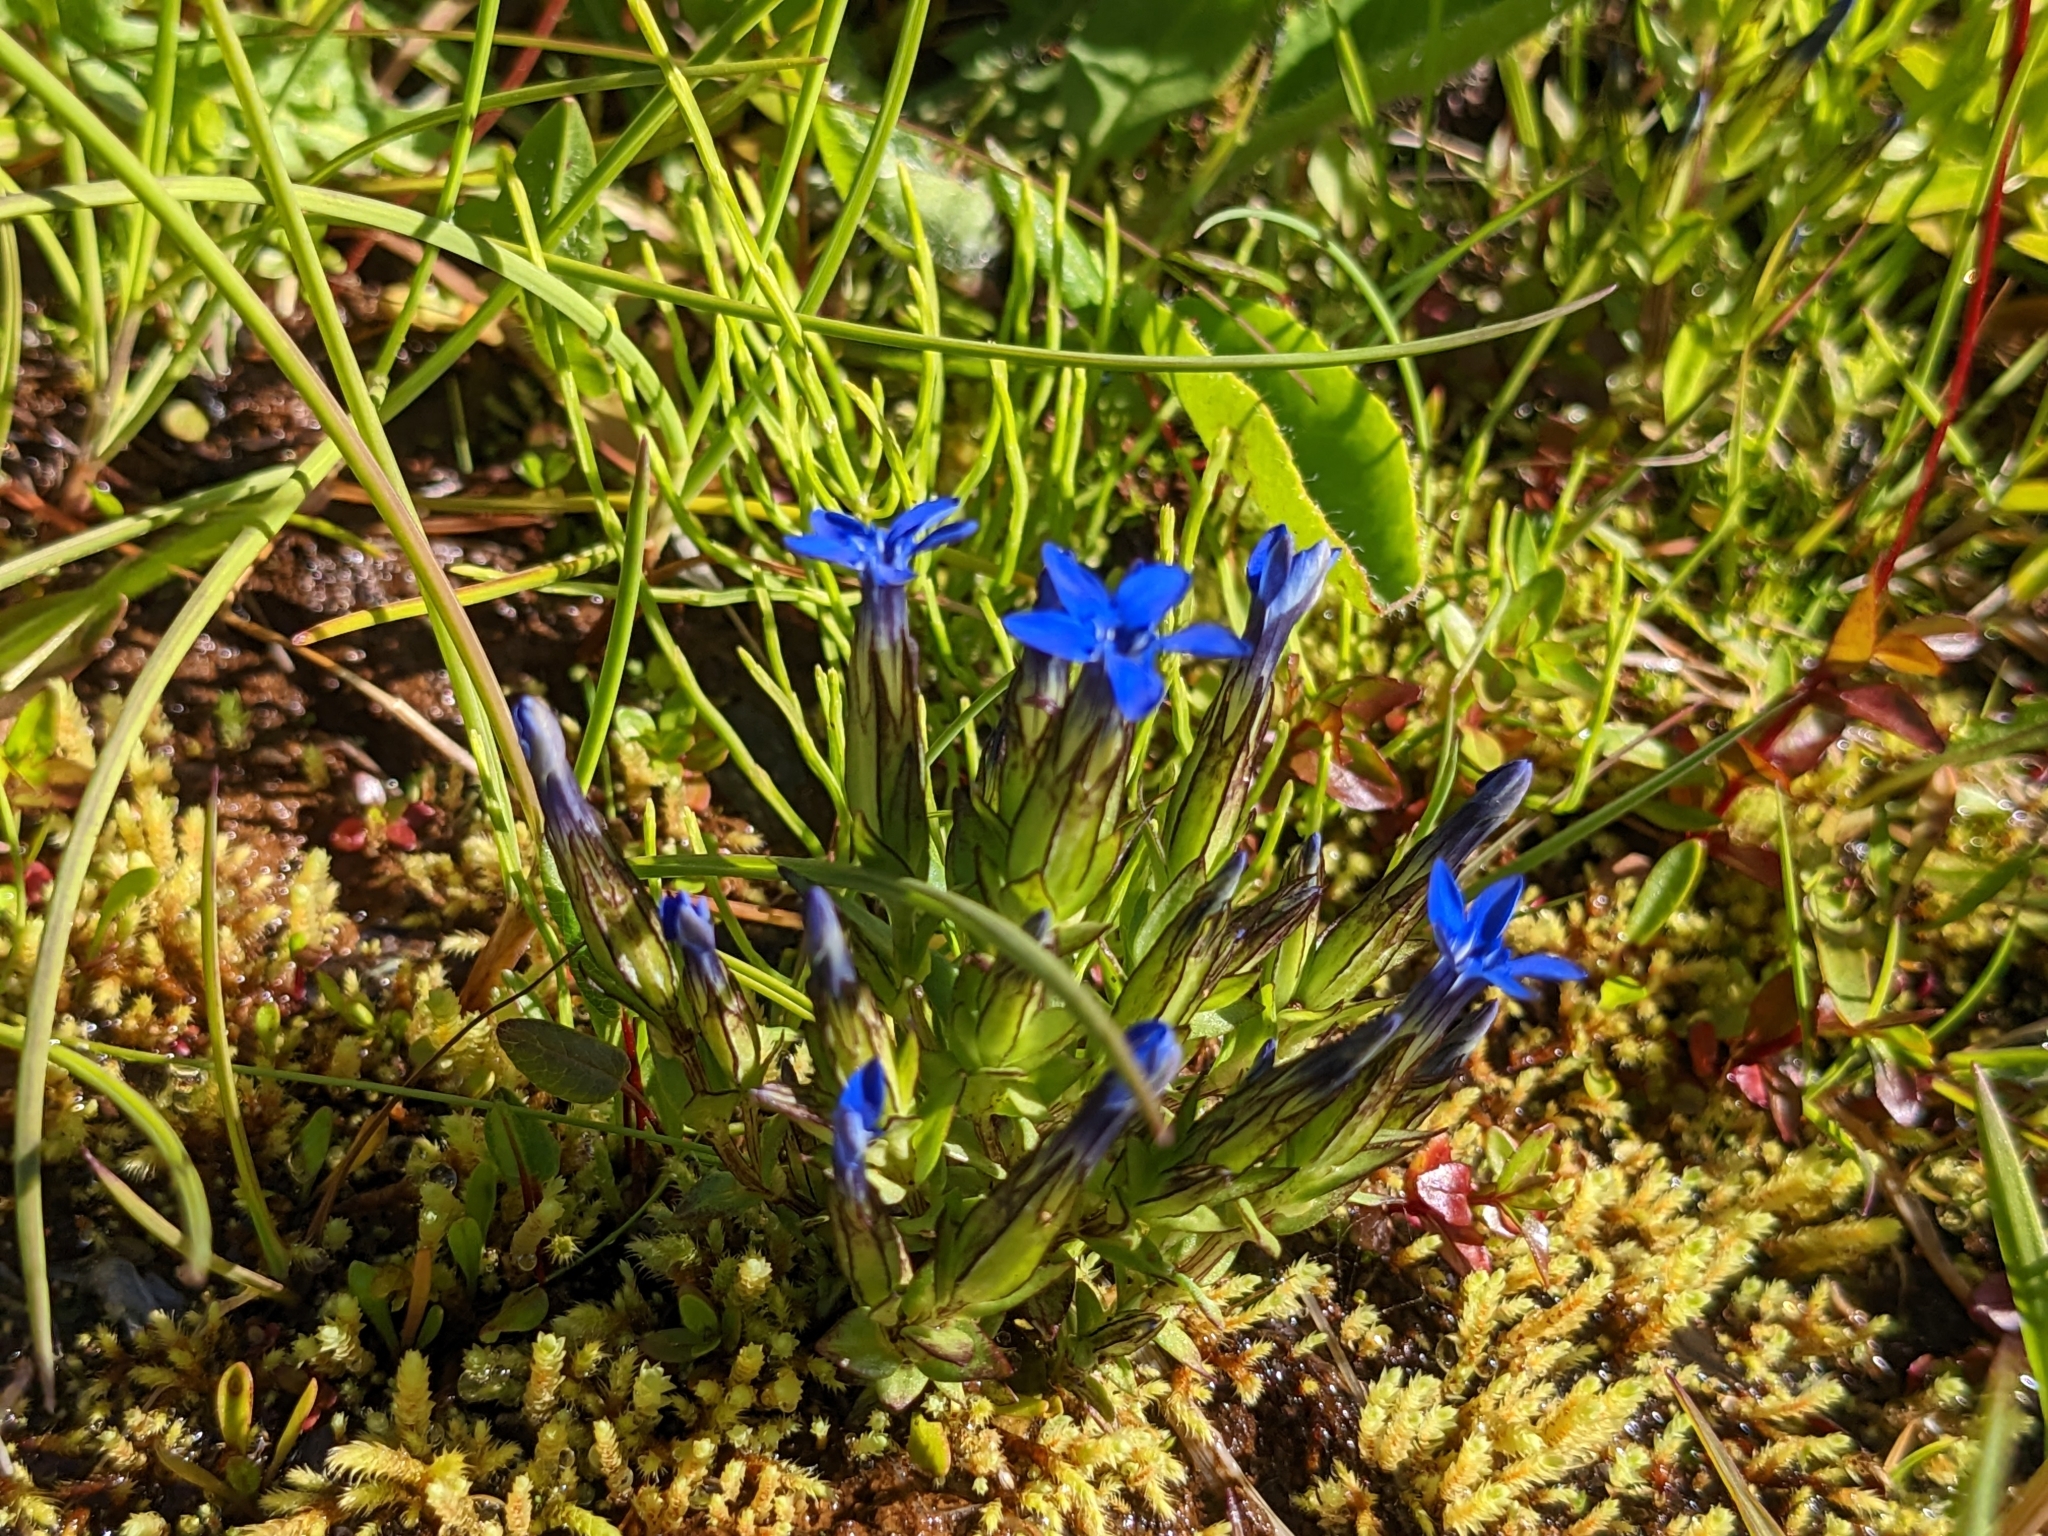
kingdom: Plantae
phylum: Tracheophyta
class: Magnoliopsida
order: Gentianales
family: Gentianaceae
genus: Gentiana
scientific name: Gentiana nivalis
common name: Alpine gentian
